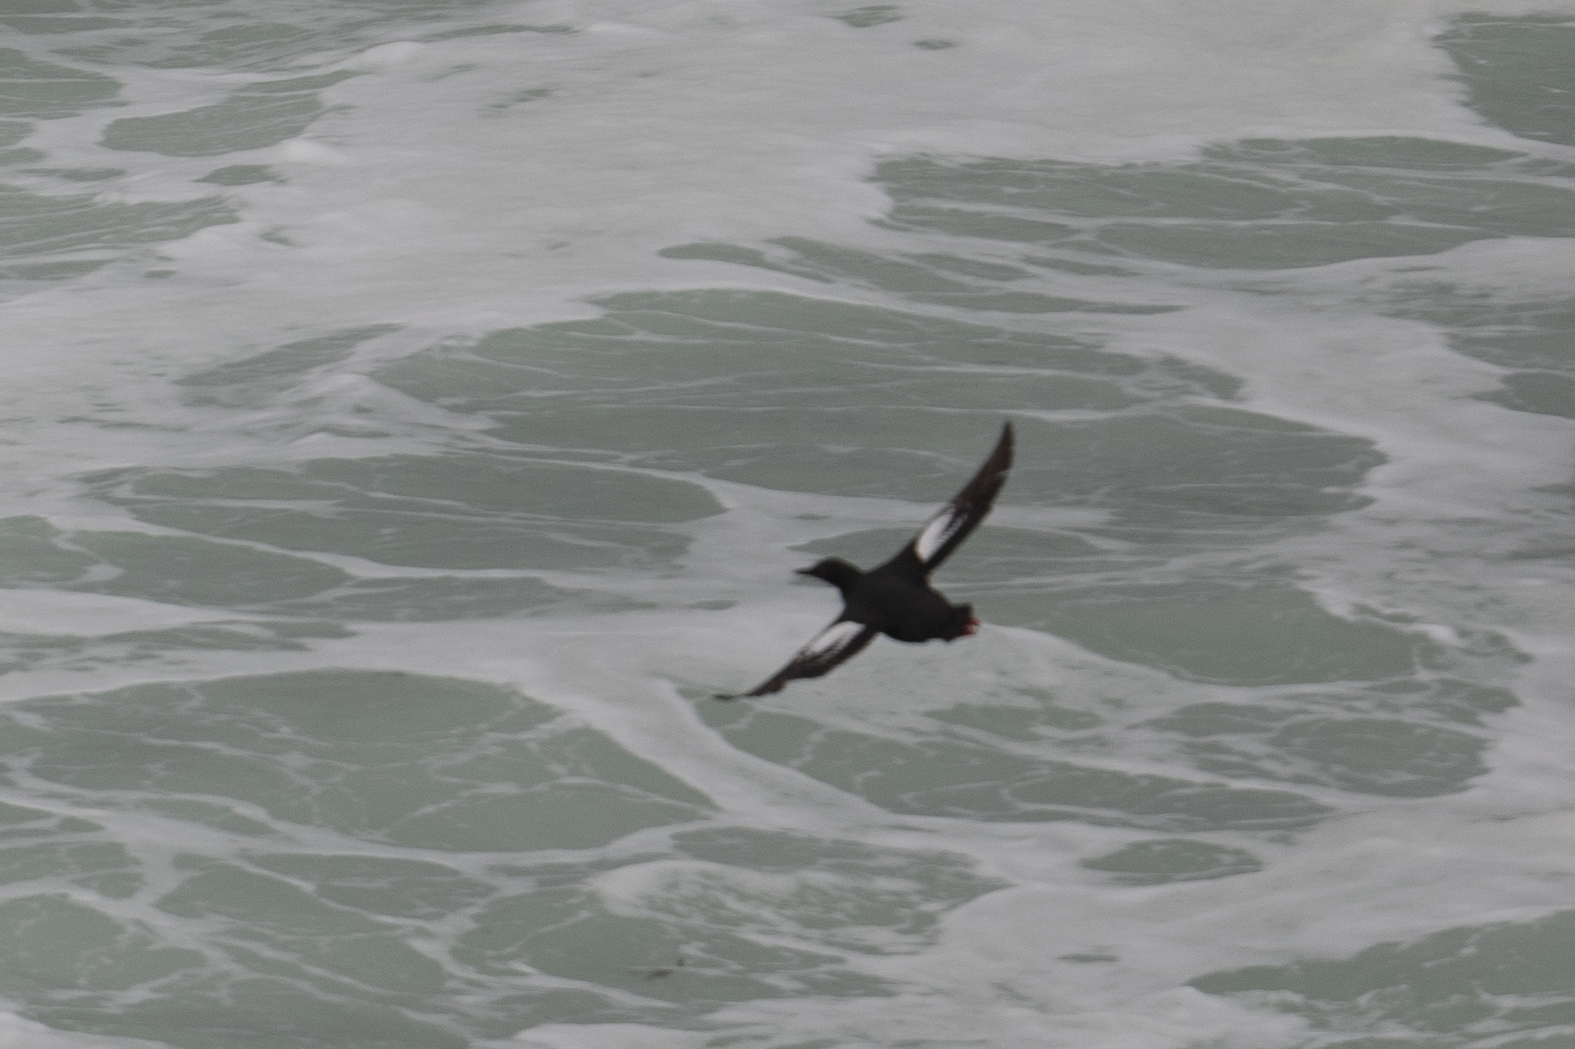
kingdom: Animalia
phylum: Chordata
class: Aves
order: Charadriiformes
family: Alcidae
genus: Cepphus
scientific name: Cepphus columba
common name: Pigeon guillemot
